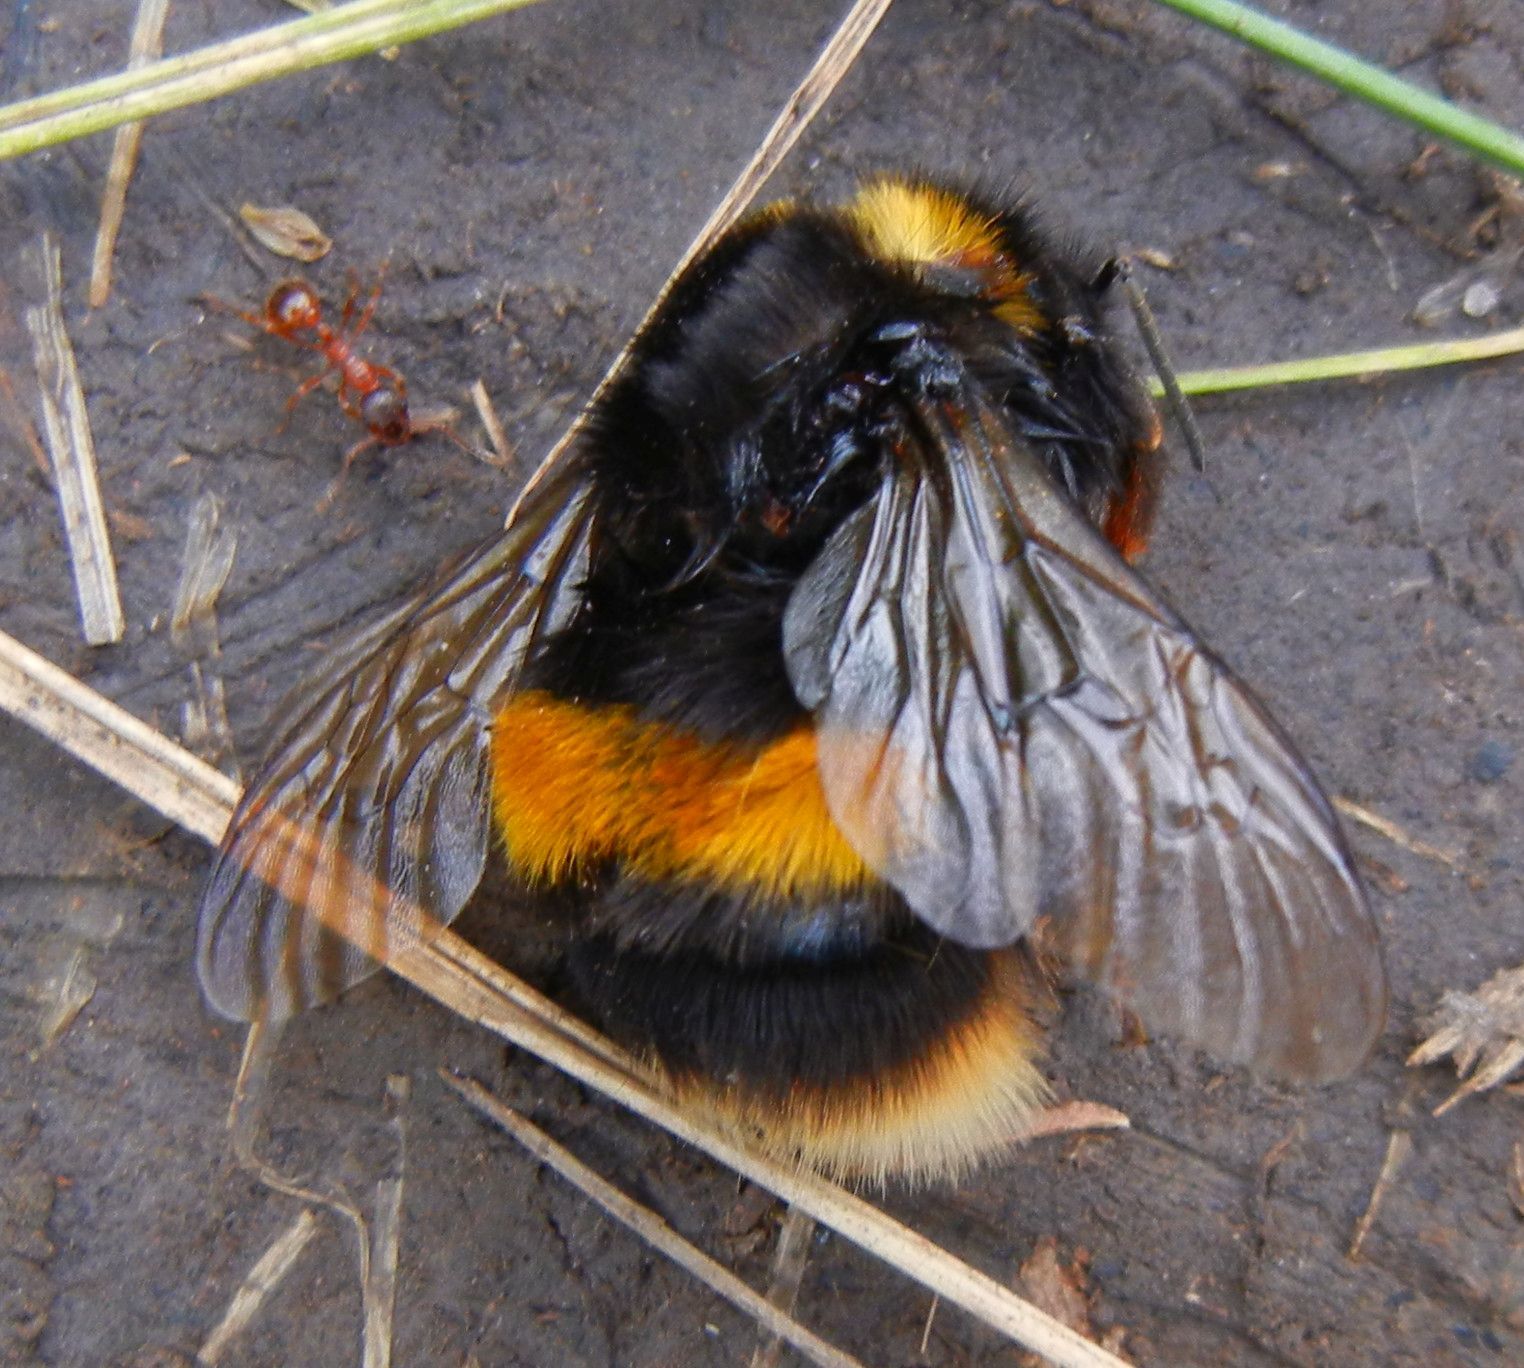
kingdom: Animalia
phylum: Arthropoda
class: Insecta
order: Hymenoptera
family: Apidae
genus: Bombus
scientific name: Bombus terrestris
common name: Buff-tailed bumblebee
